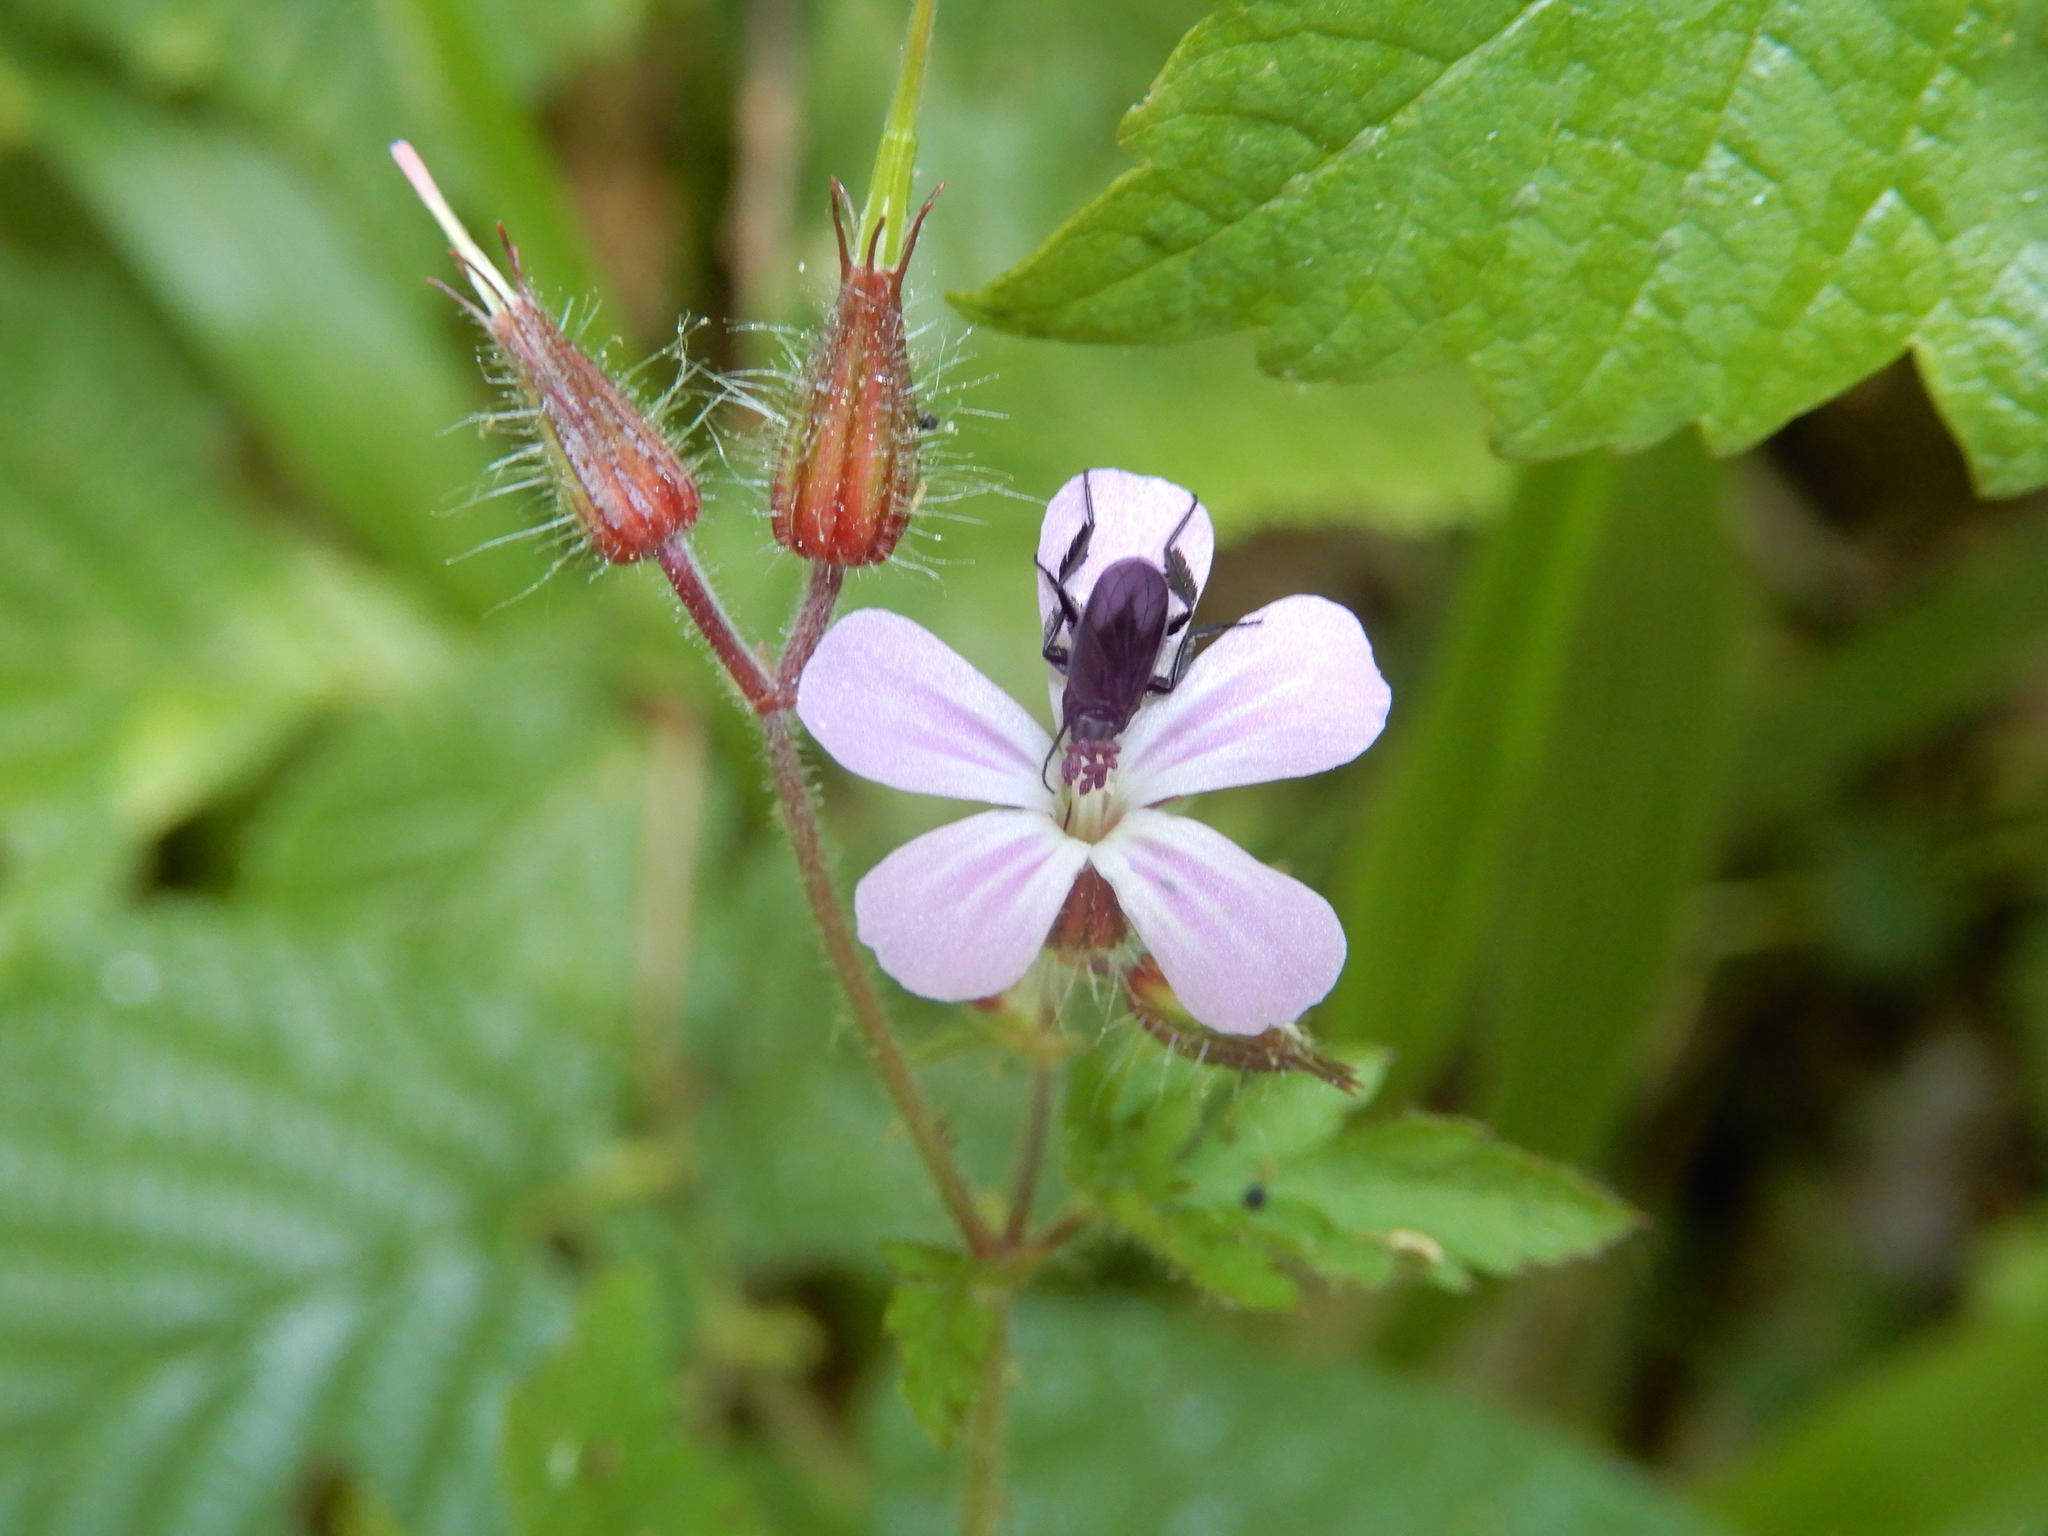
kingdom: Plantae
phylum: Tracheophyta
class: Magnoliopsida
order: Geraniales
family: Geraniaceae
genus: Geranium
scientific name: Geranium robertianum
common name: Herb-robert
